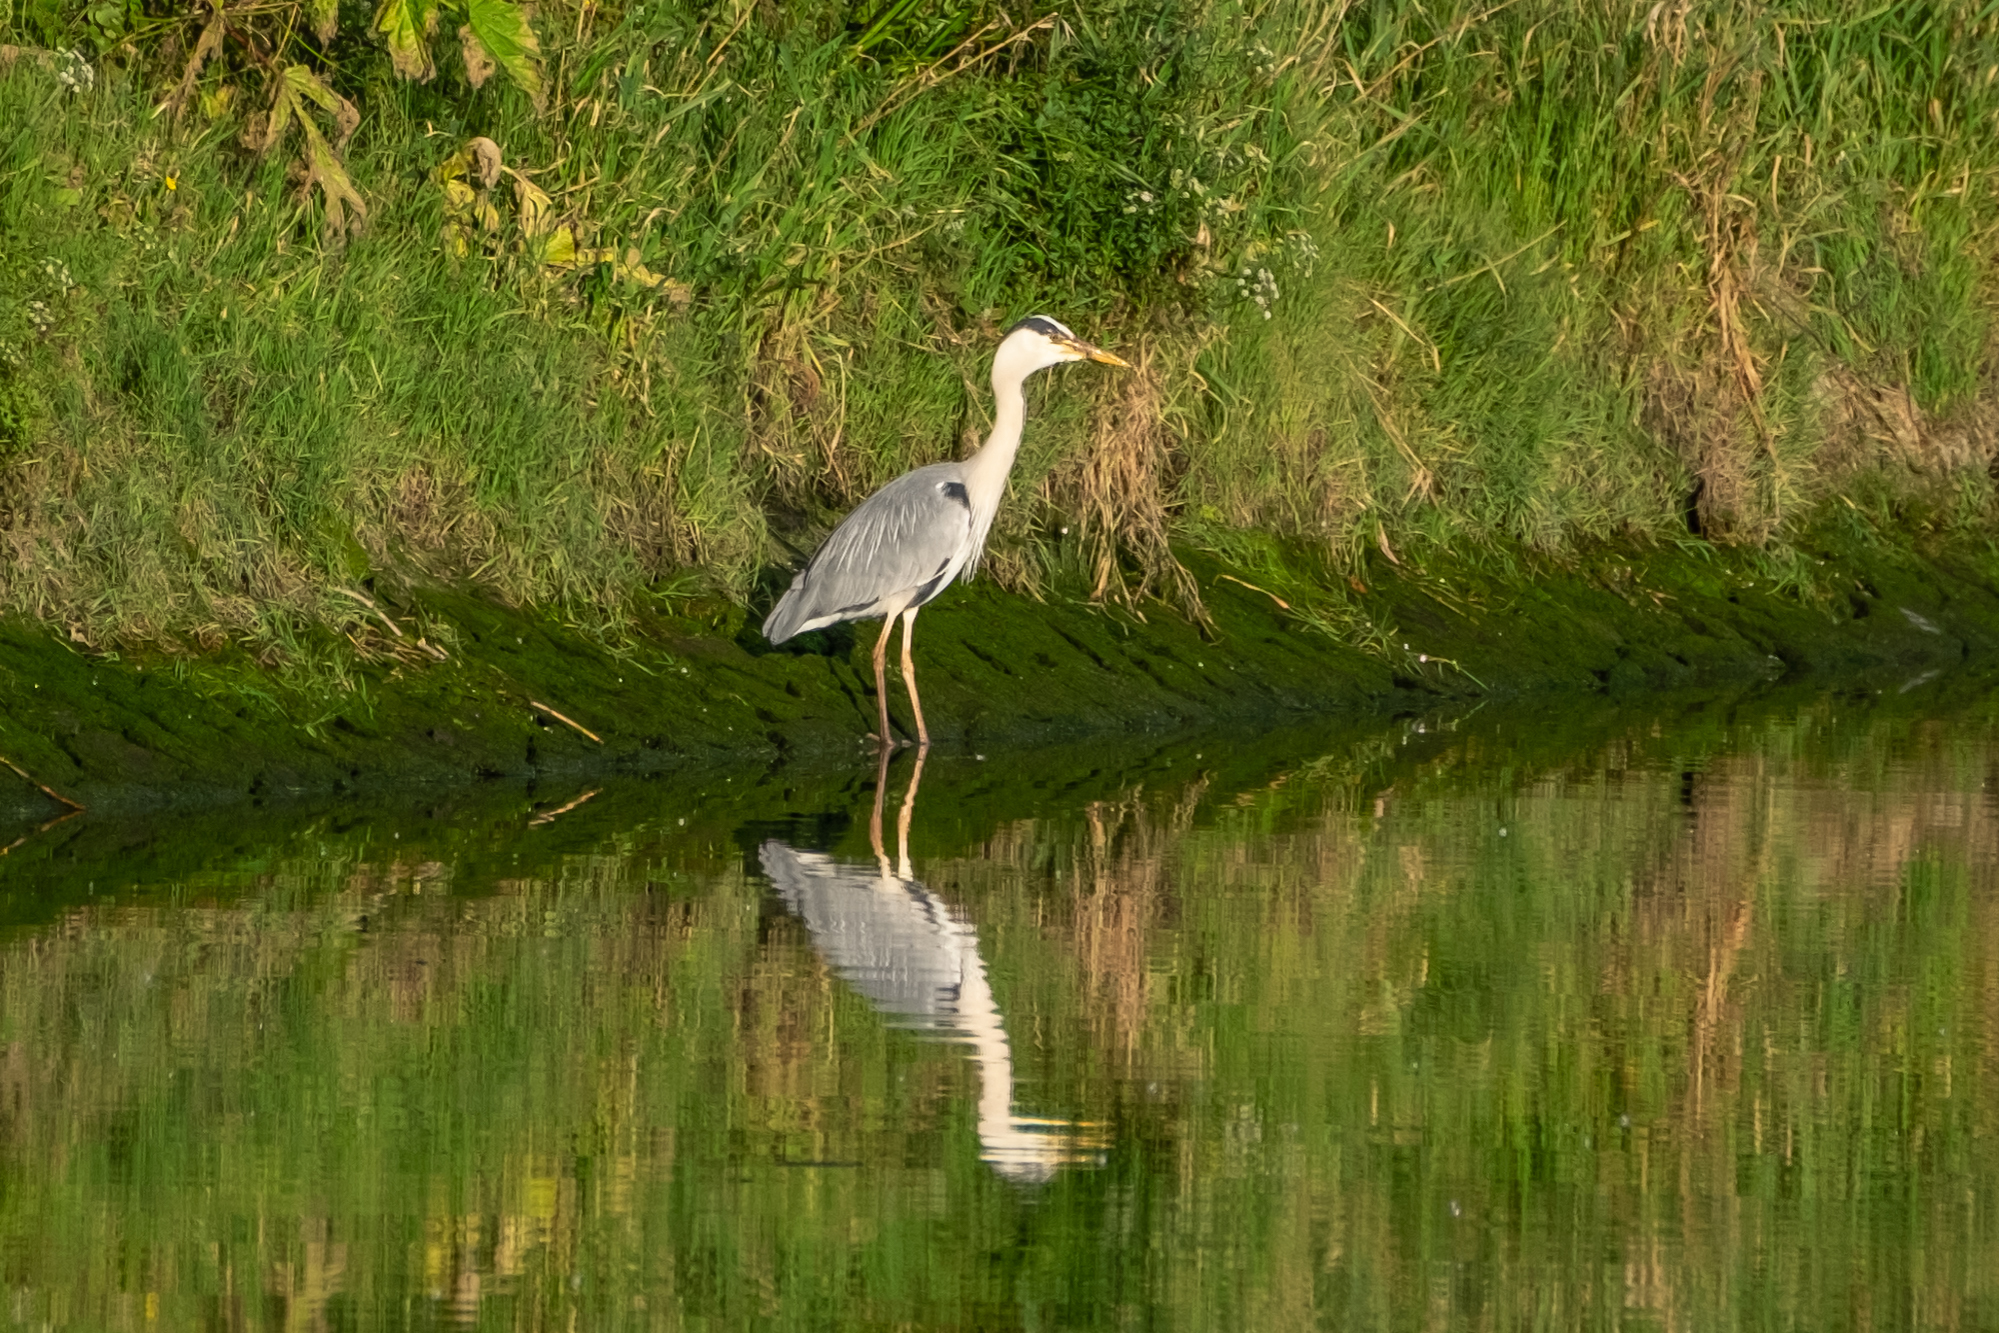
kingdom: Animalia
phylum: Chordata
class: Aves
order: Pelecaniformes
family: Ardeidae
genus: Ardea
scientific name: Ardea cinerea
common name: Grey heron
